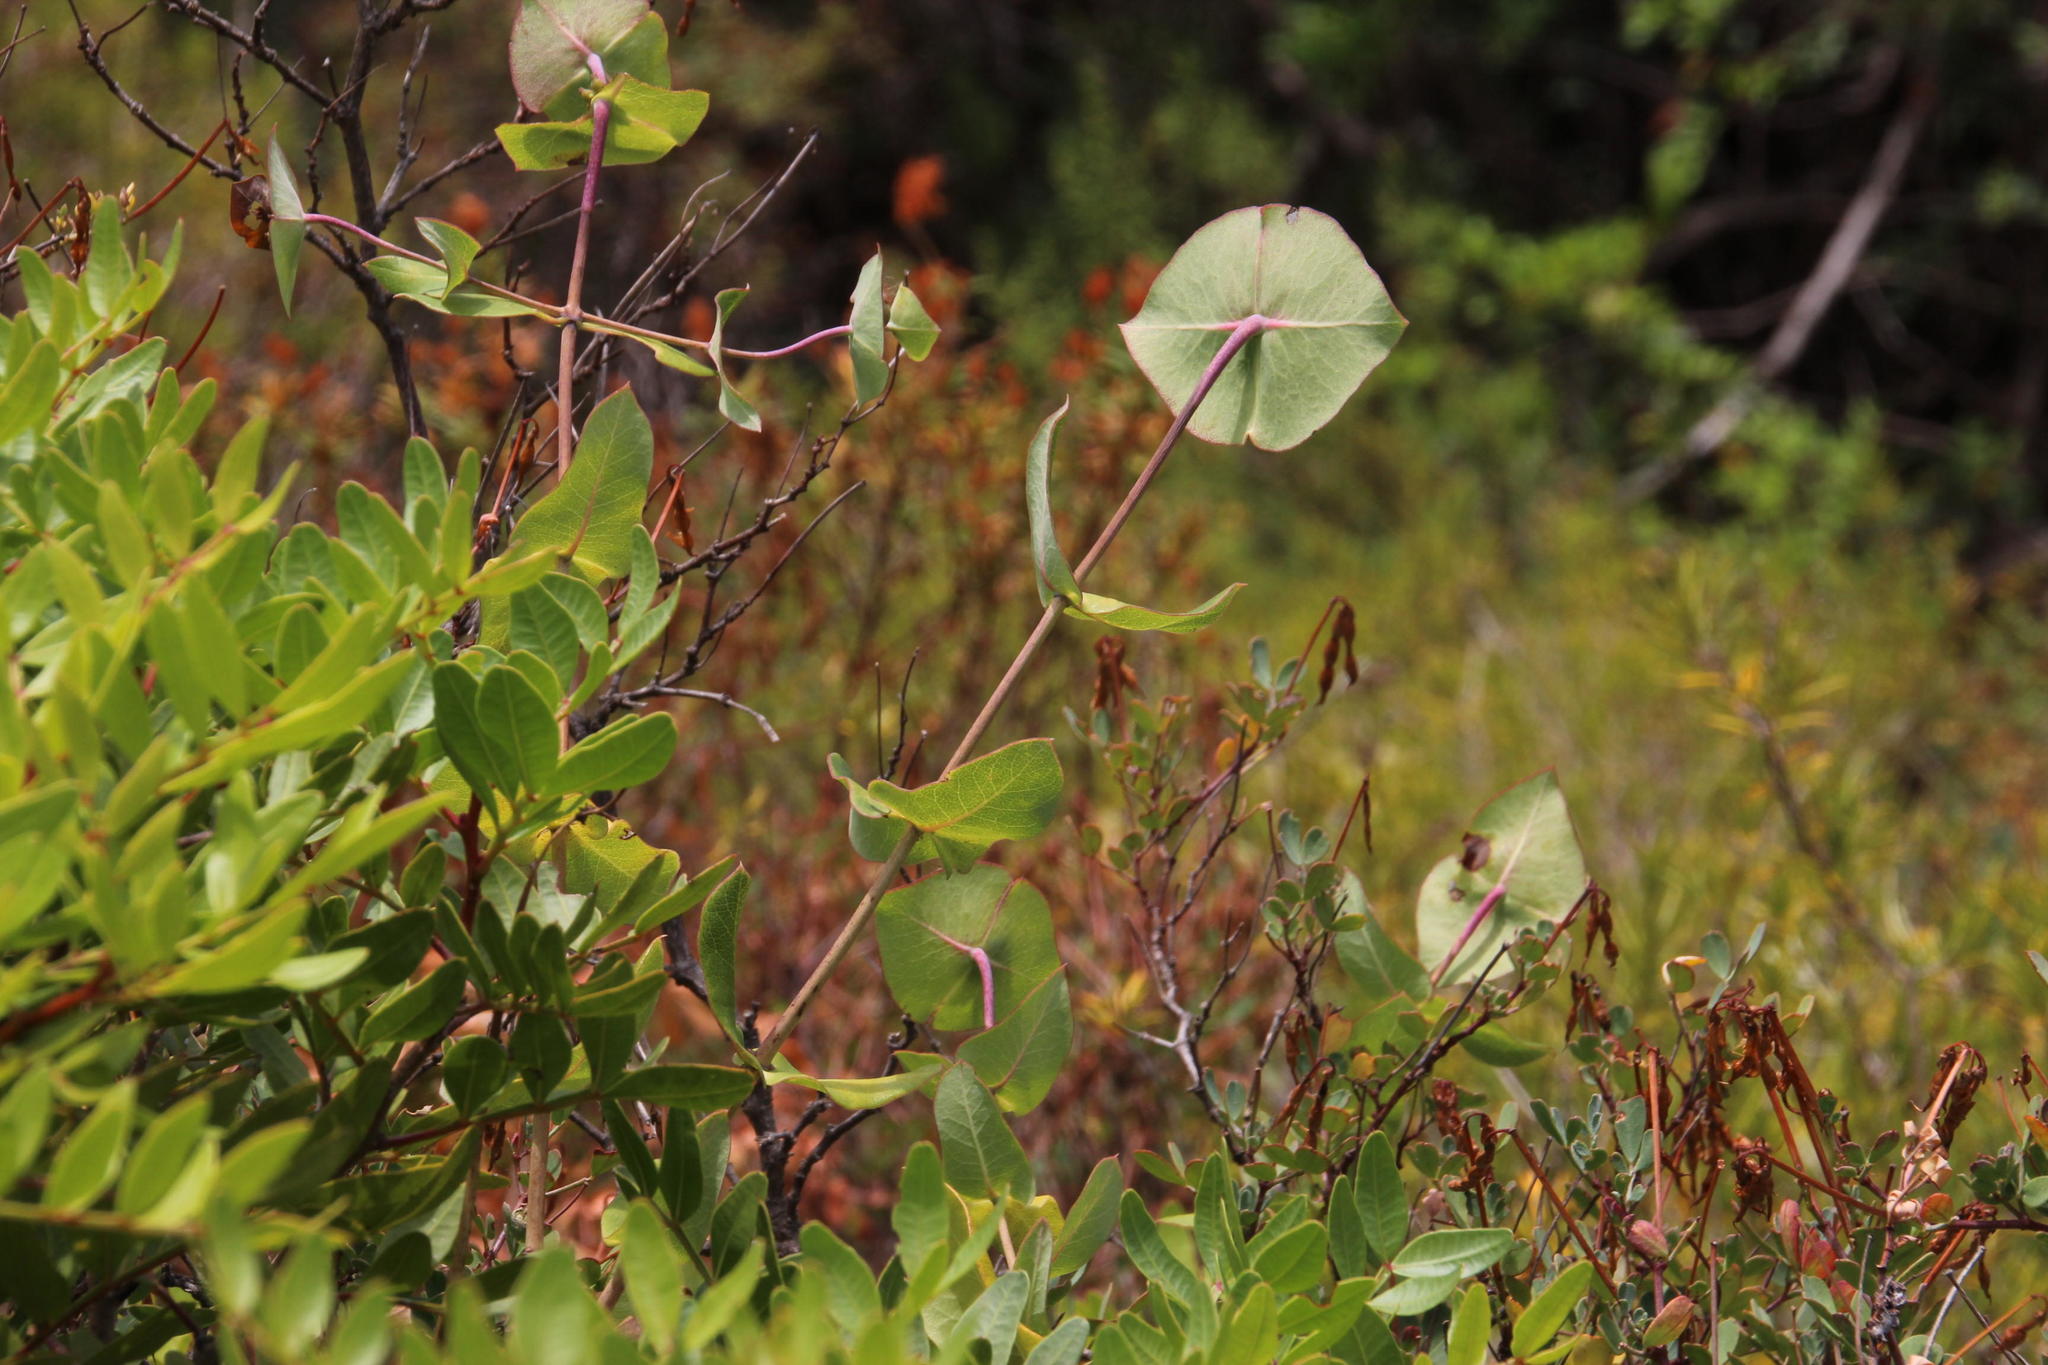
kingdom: Plantae
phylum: Tracheophyta
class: Magnoliopsida
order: Dipsacales
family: Caprifoliaceae
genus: Lonicera
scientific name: Lonicera implexa
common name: Minorca honeysuckle
